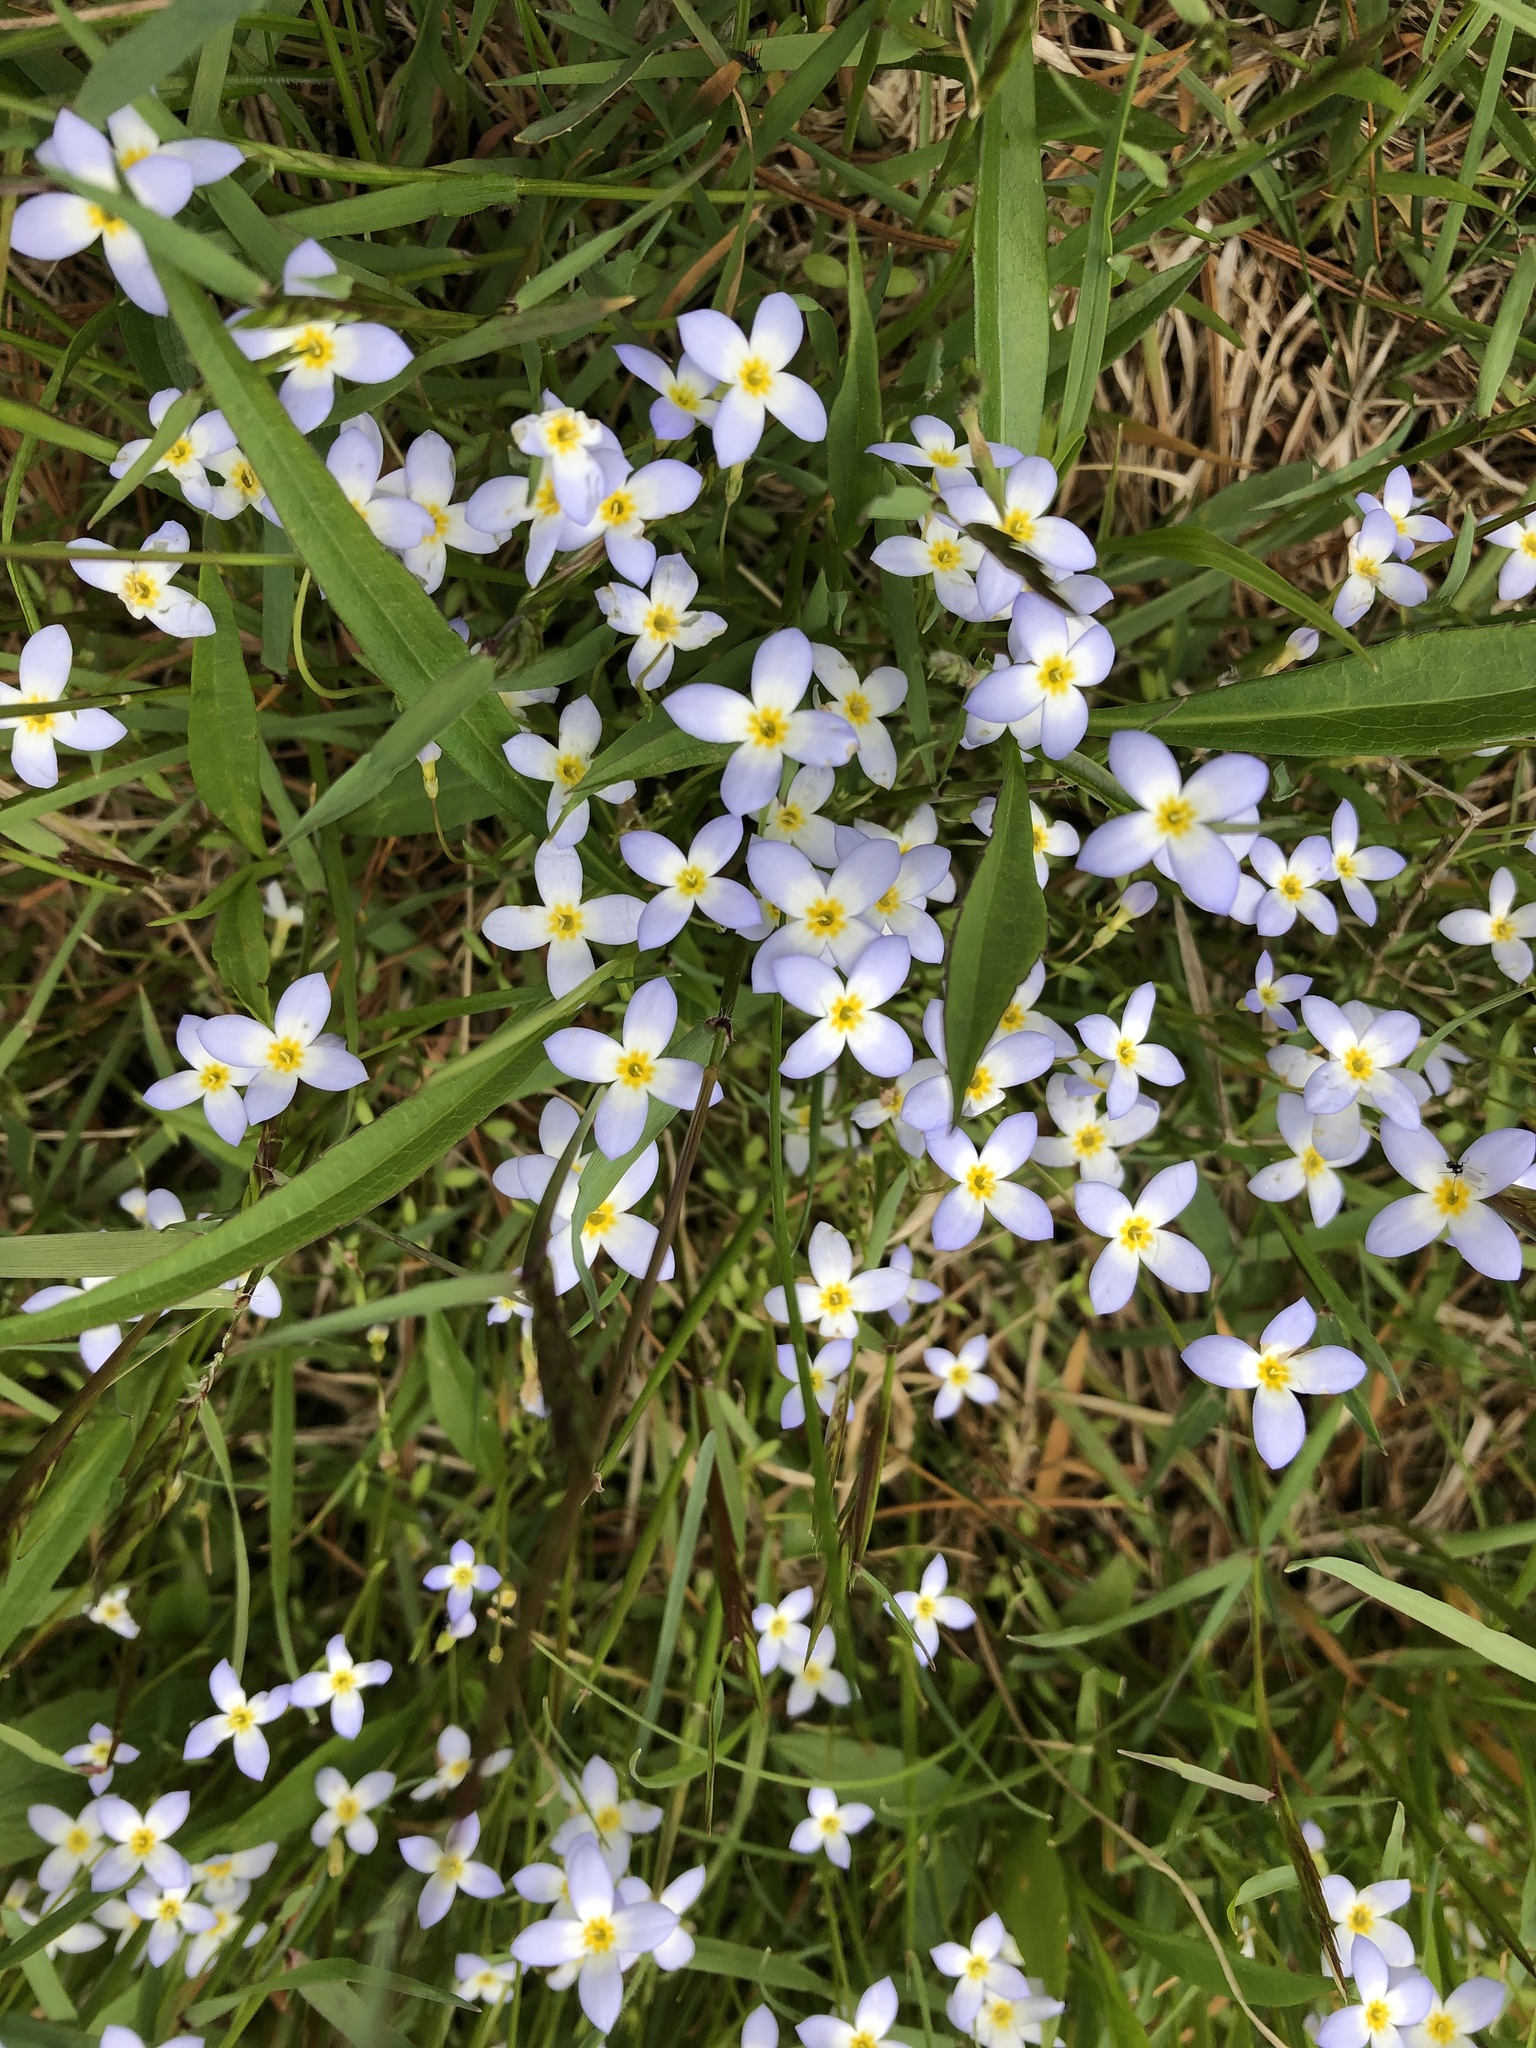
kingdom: Plantae
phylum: Tracheophyta
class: Magnoliopsida
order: Gentianales
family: Rubiaceae
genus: Houstonia
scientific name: Houstonia caerulea
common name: Bluets
